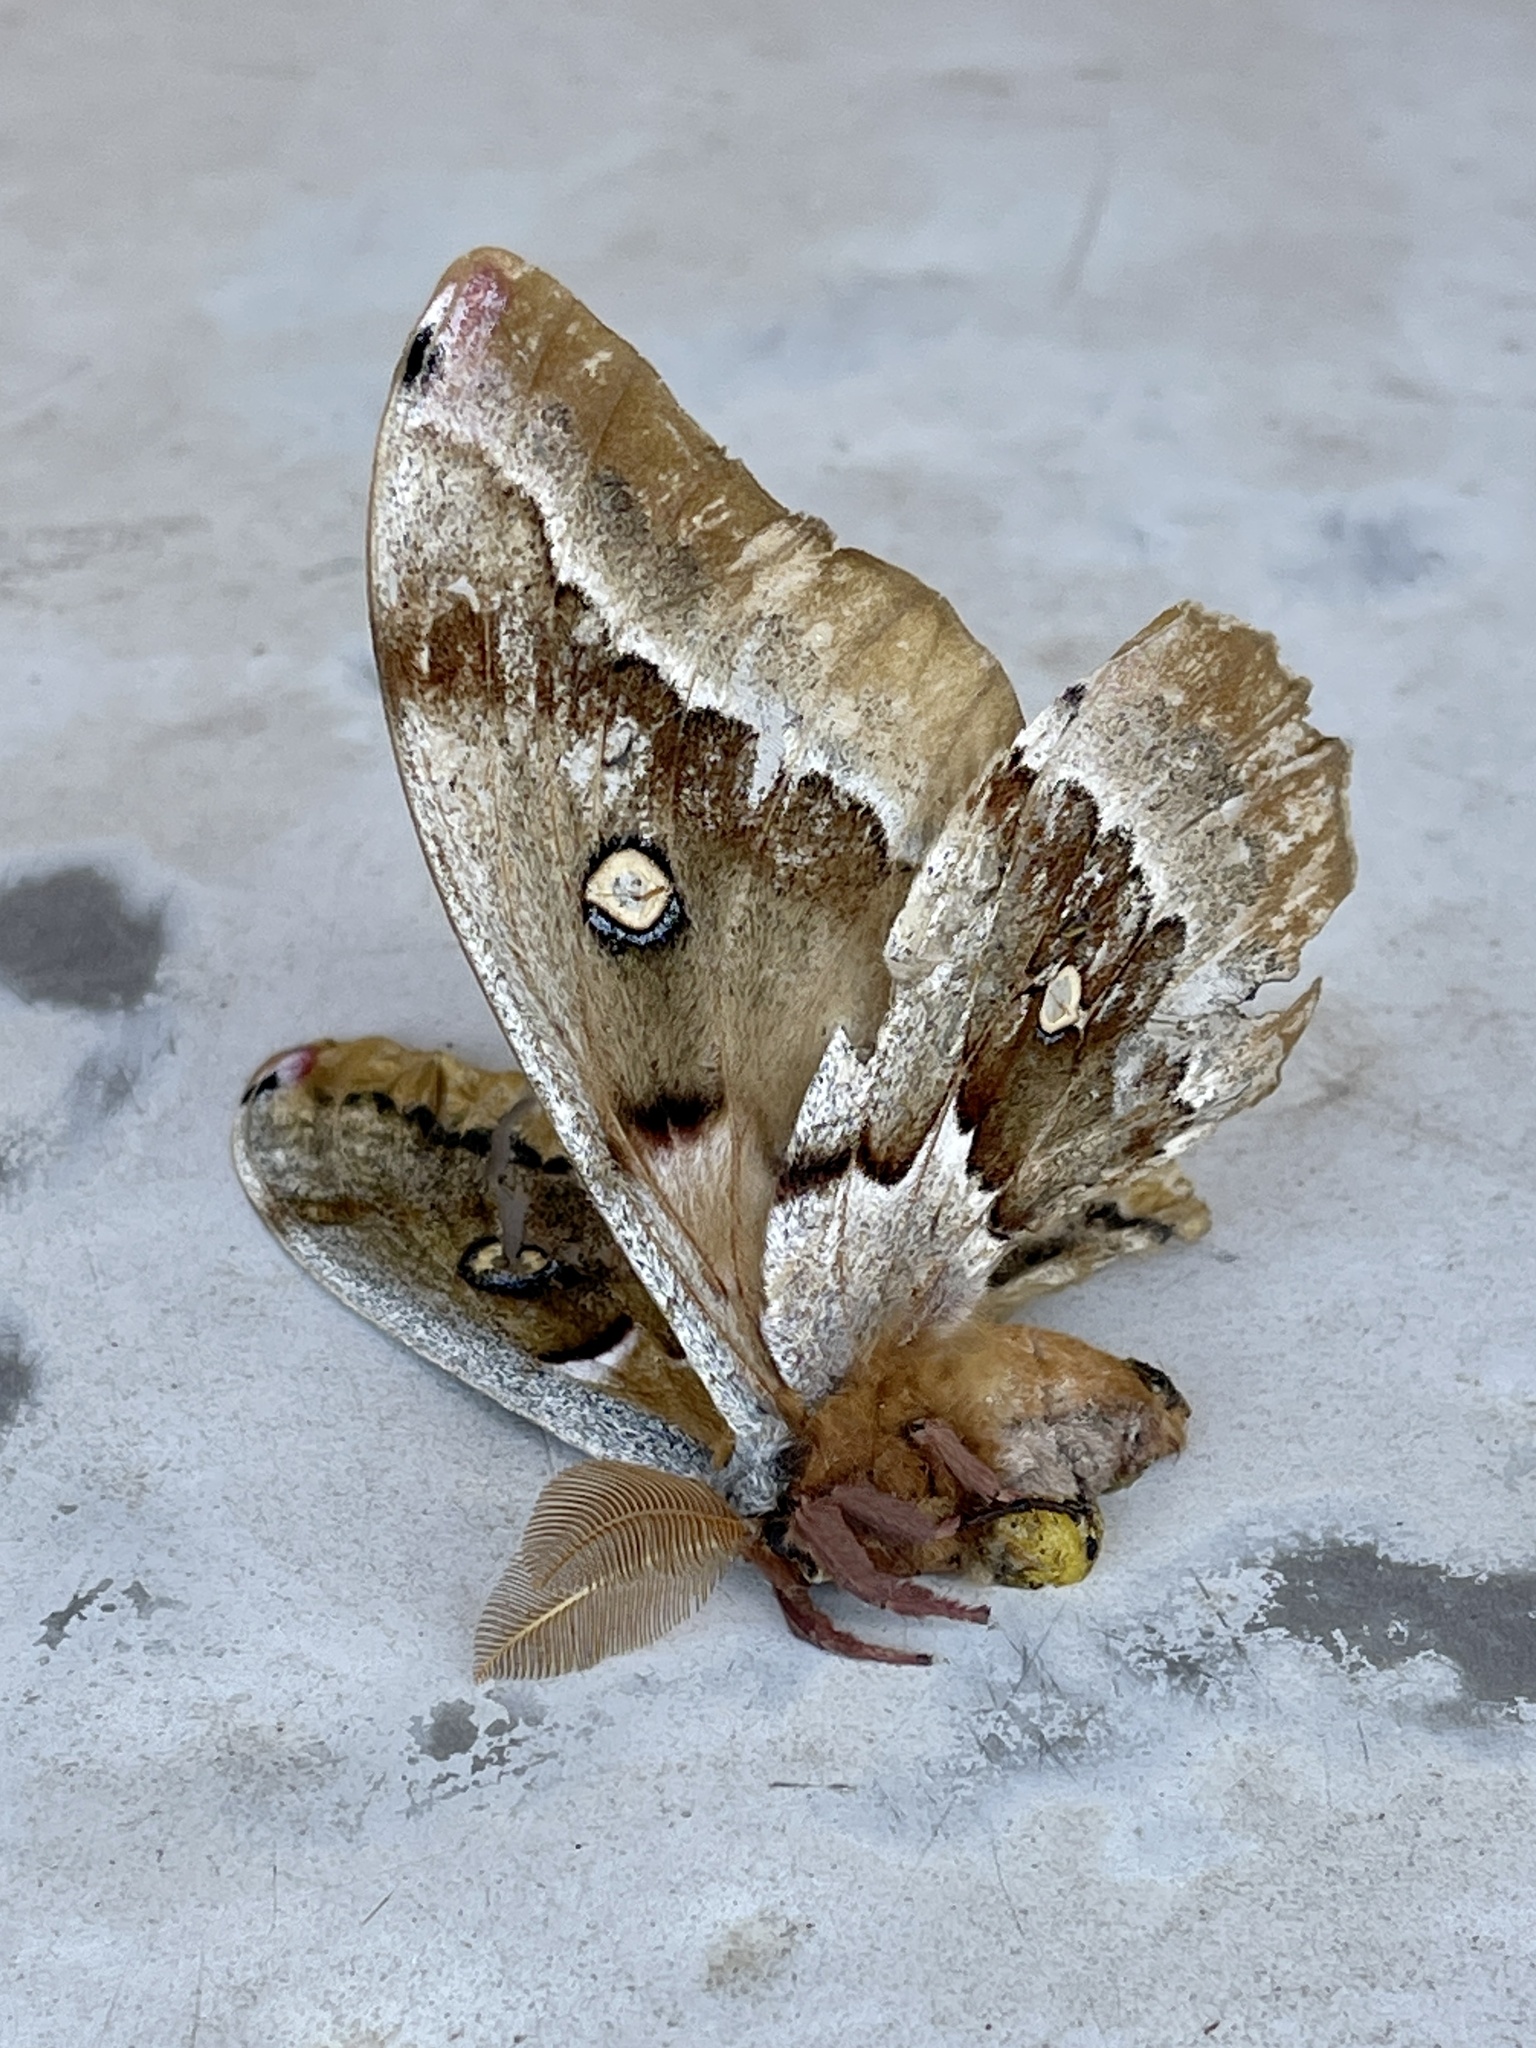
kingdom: Animalia
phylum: Arthropoda
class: Insecta
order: Lepidoptera
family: Saturniidae
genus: Antheraea
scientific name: Antheraea oculea
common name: Arizona polyphemus moth
